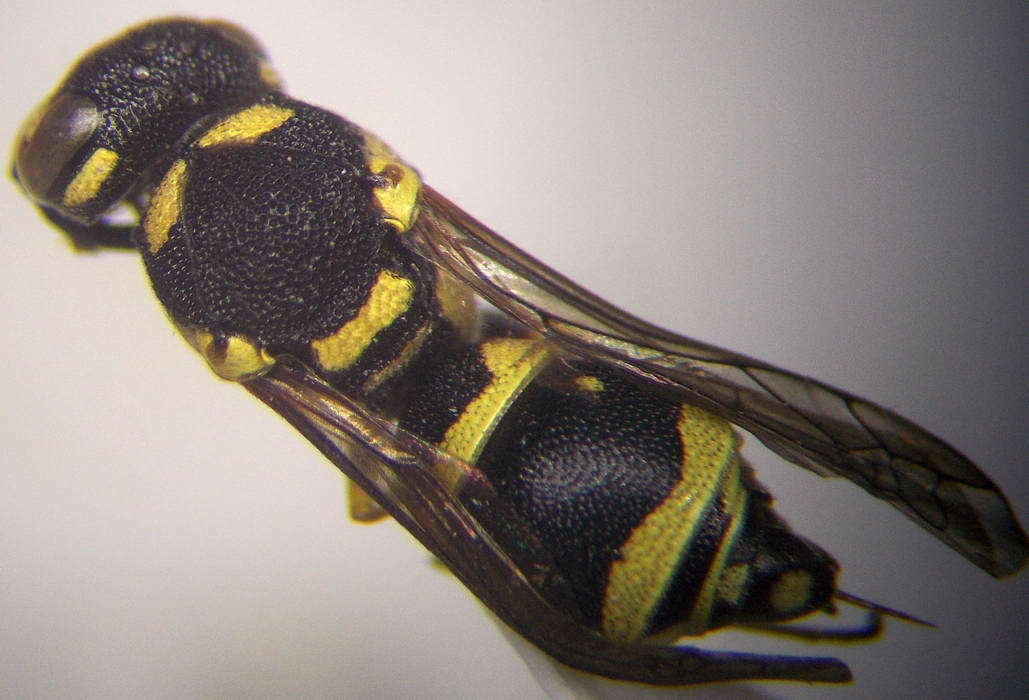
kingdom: Animalia
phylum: Arthropoda
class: Insecta
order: Hymenoptera
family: Eumenidae
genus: Antepipona
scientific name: Antepipona deflenda
